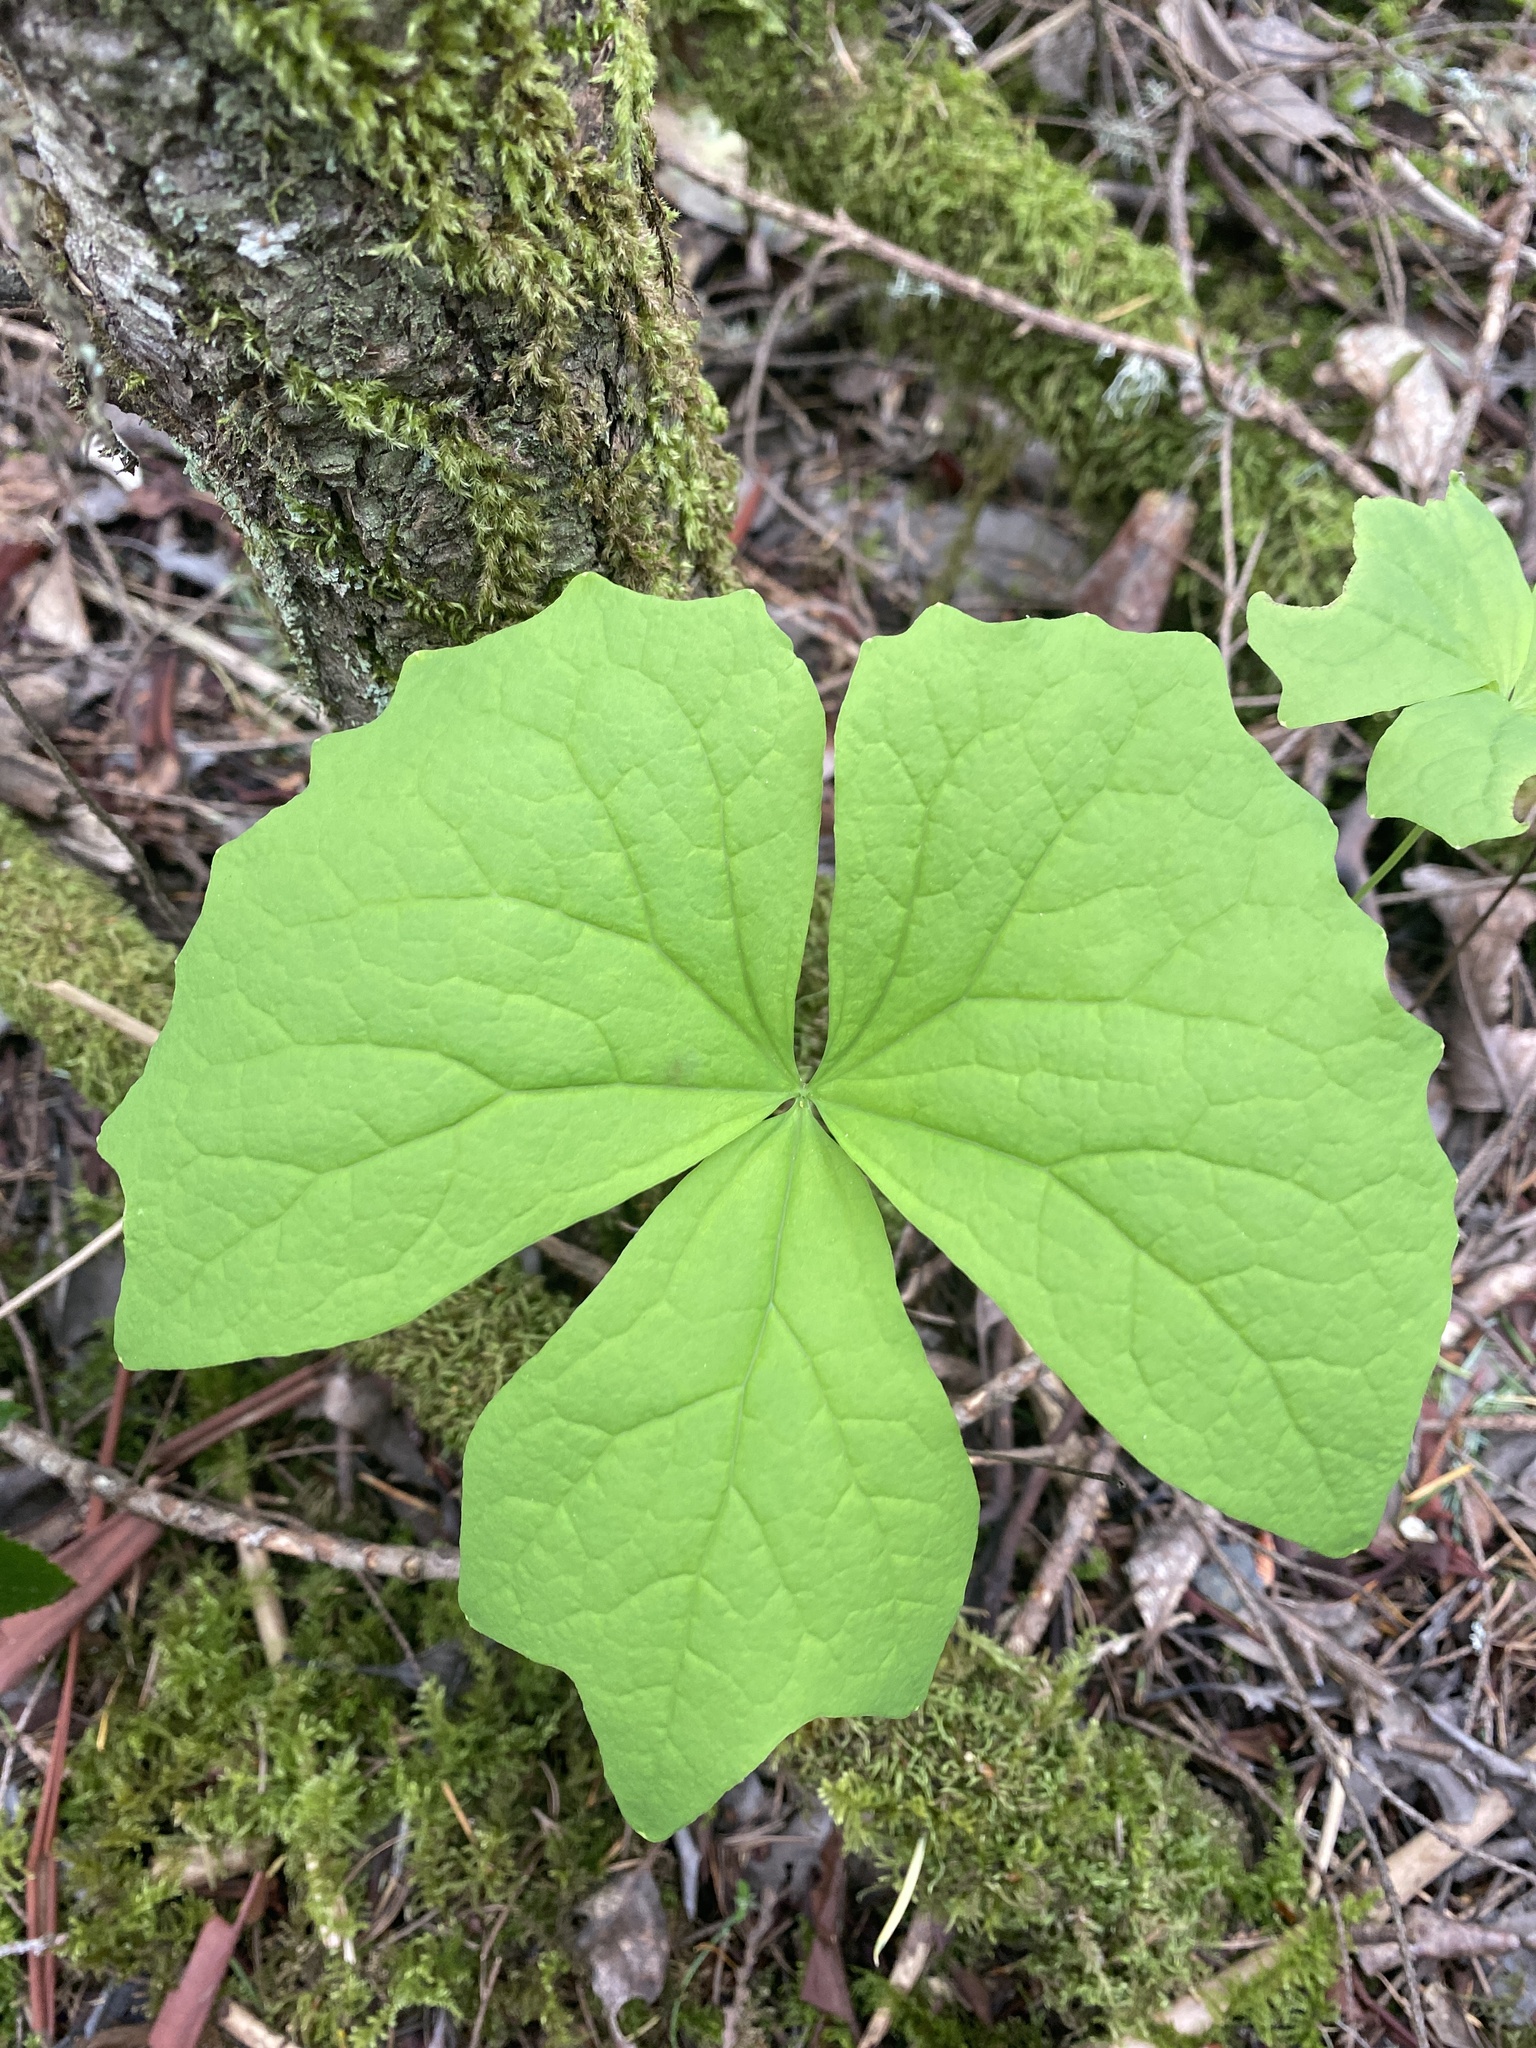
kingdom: Plantae
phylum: Tracheophyta
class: Magnoliopsida
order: Ranunculales
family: Berberidaceae
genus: Achlys
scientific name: Achlys triphylla
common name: Vanilla-leaf
